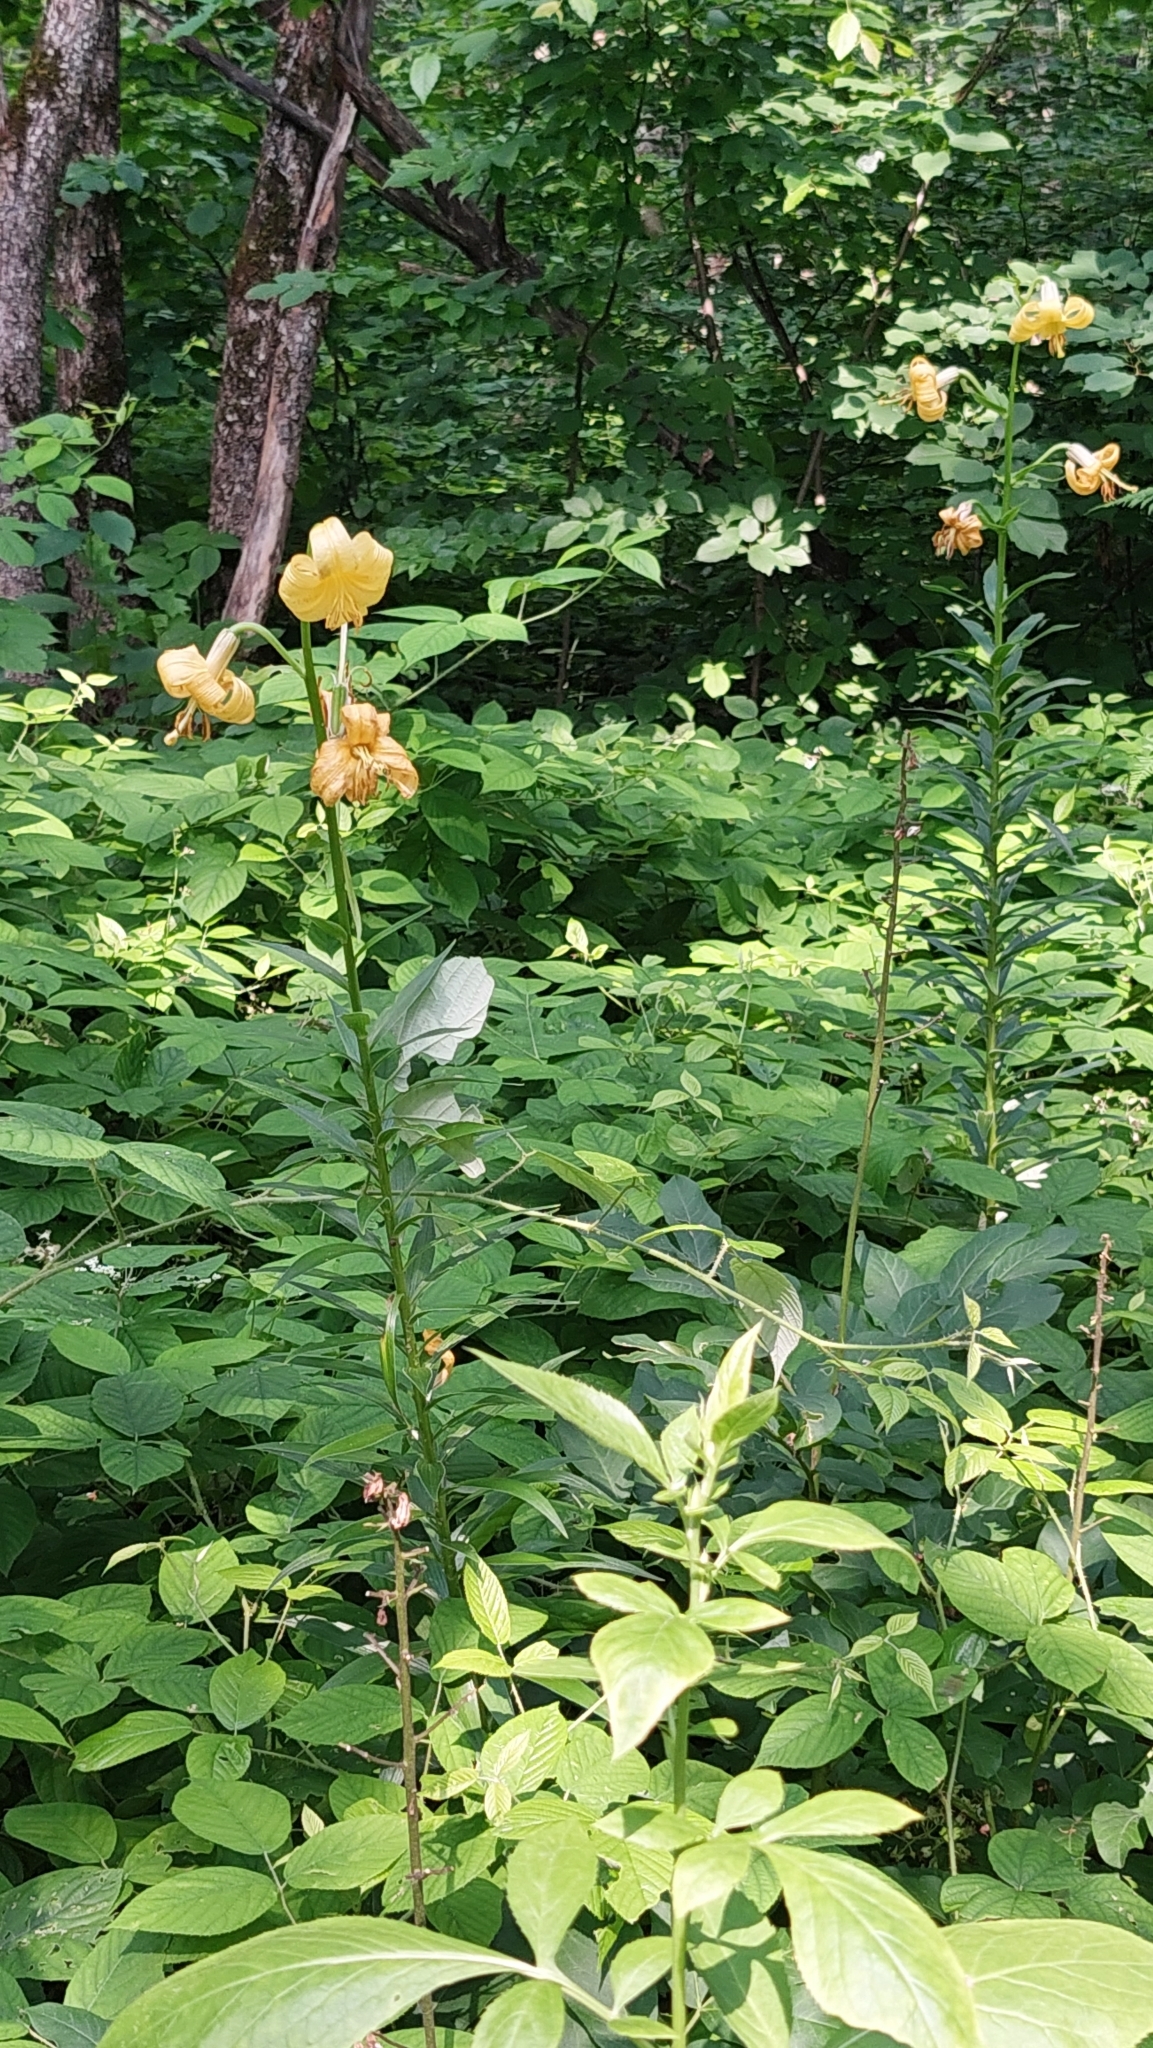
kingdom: Plantae
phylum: Tracheophyta
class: Liliopsida
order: Liliales
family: Liliaceae
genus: Lilium
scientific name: Lilium monadelphum
